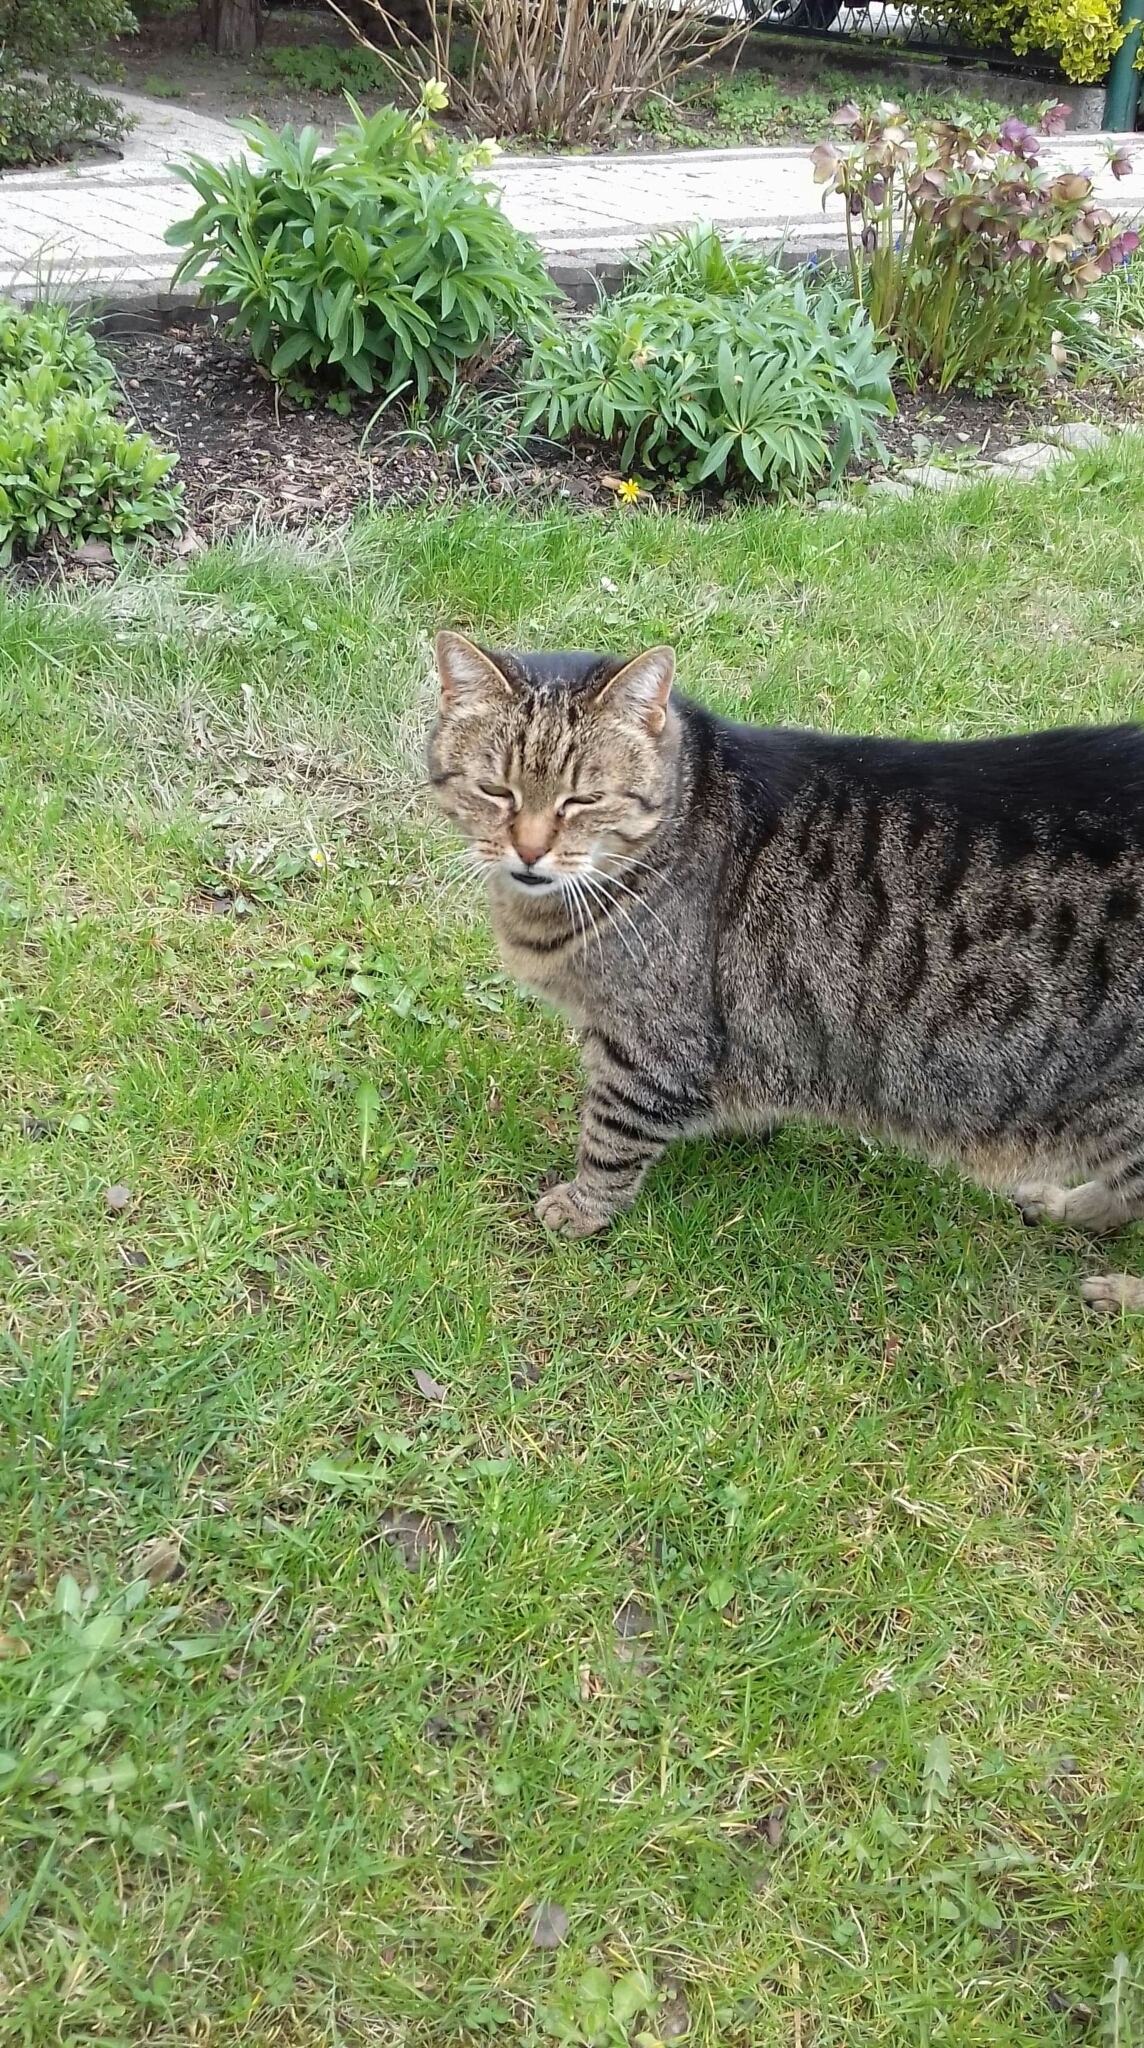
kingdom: Animalia
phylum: Chordata
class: Mammalia
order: Carnivora
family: Felidae
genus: Felis
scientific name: Felis catus
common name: Domestic cat
